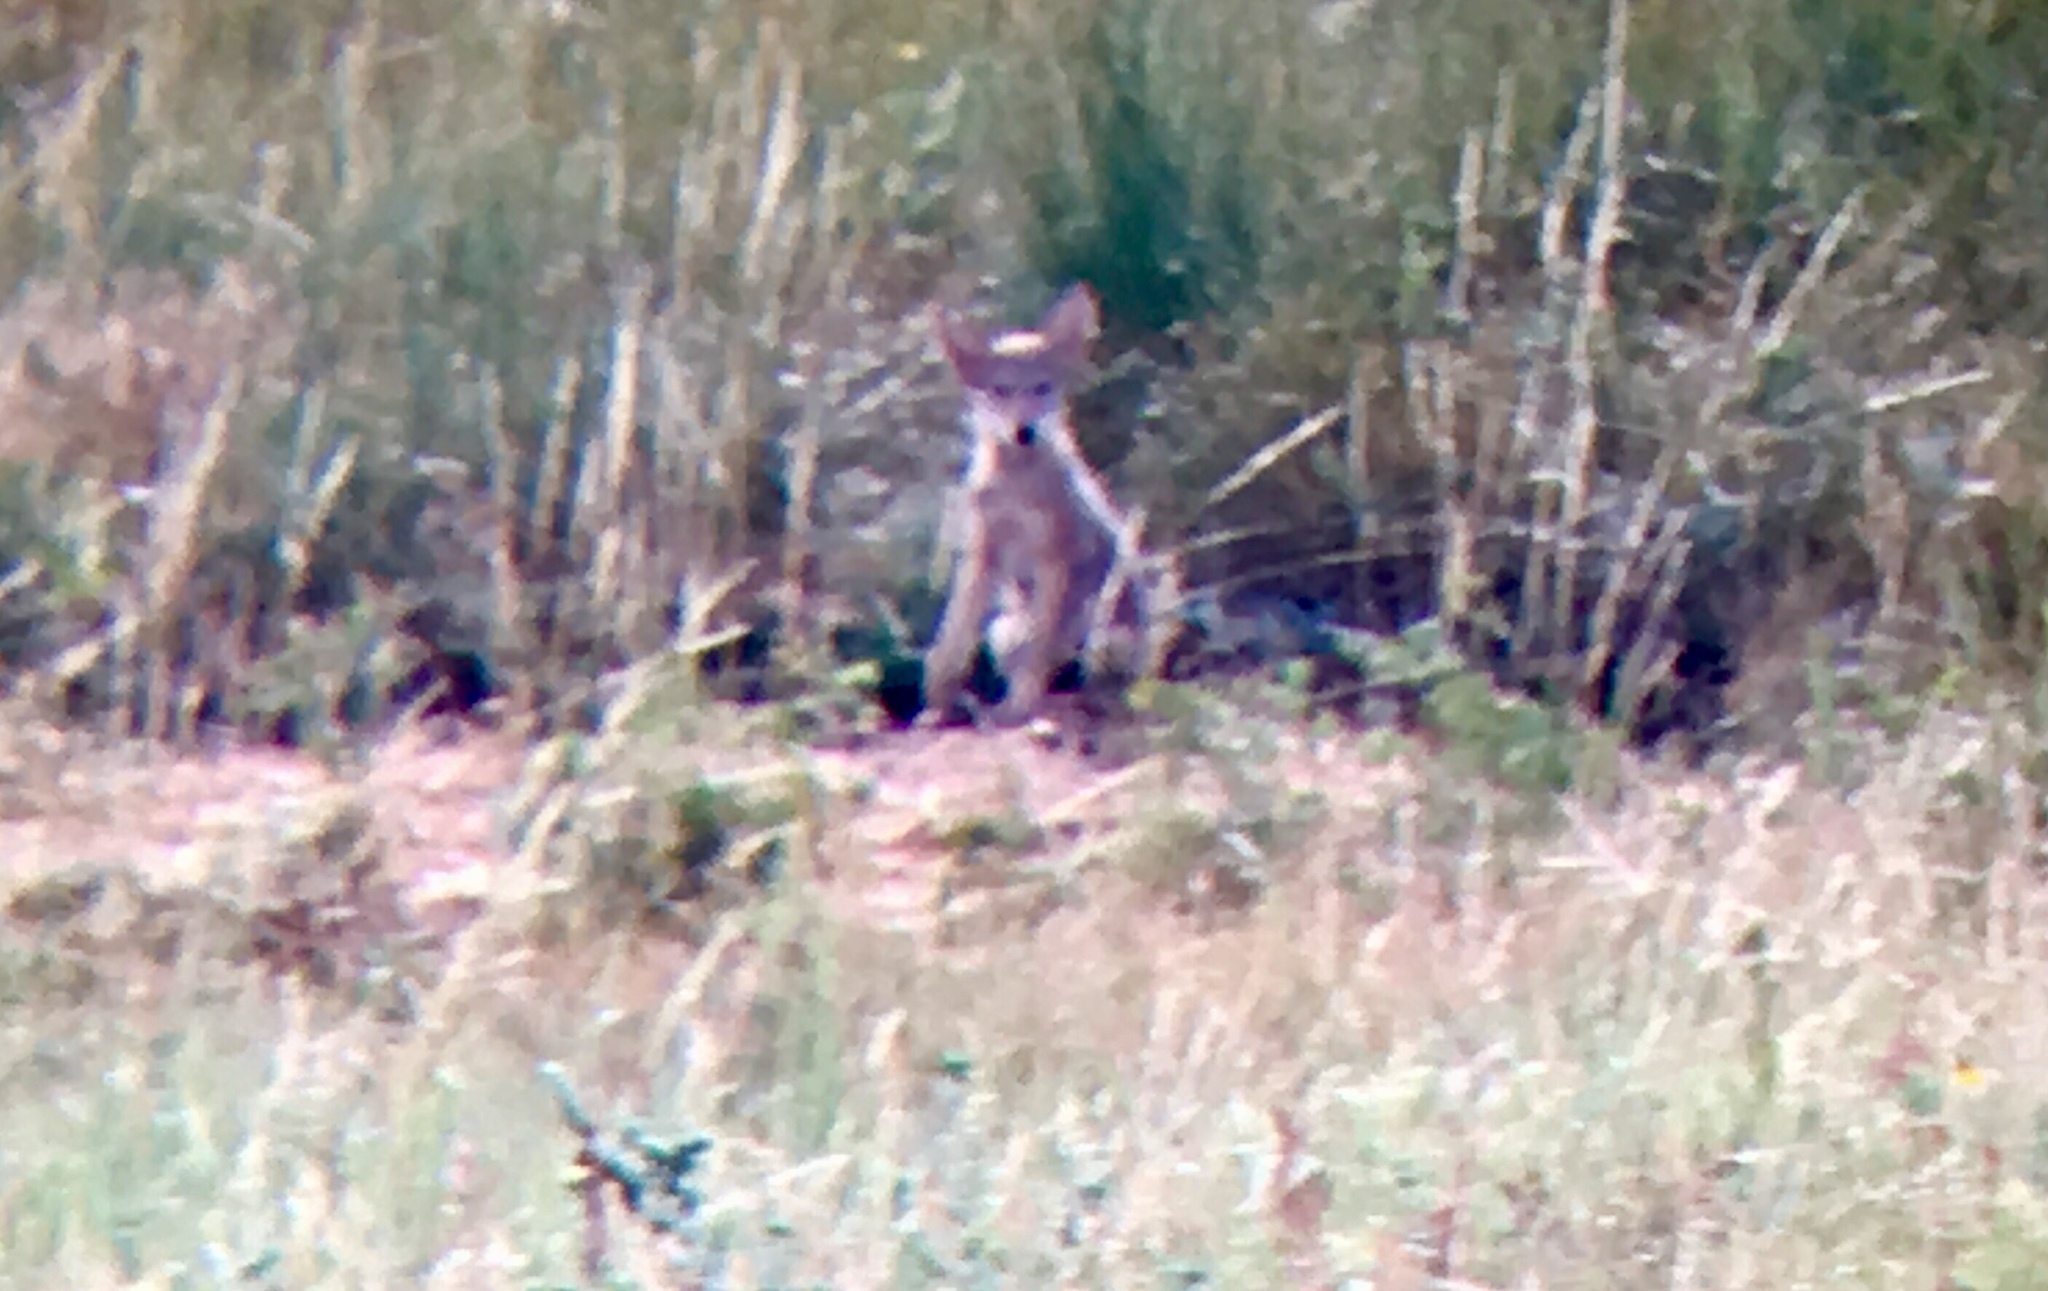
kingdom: Animalia
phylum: Chordata
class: Mammalia
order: Carnivora
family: Canidae
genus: Canis
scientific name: Canis latrans
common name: Coyote
